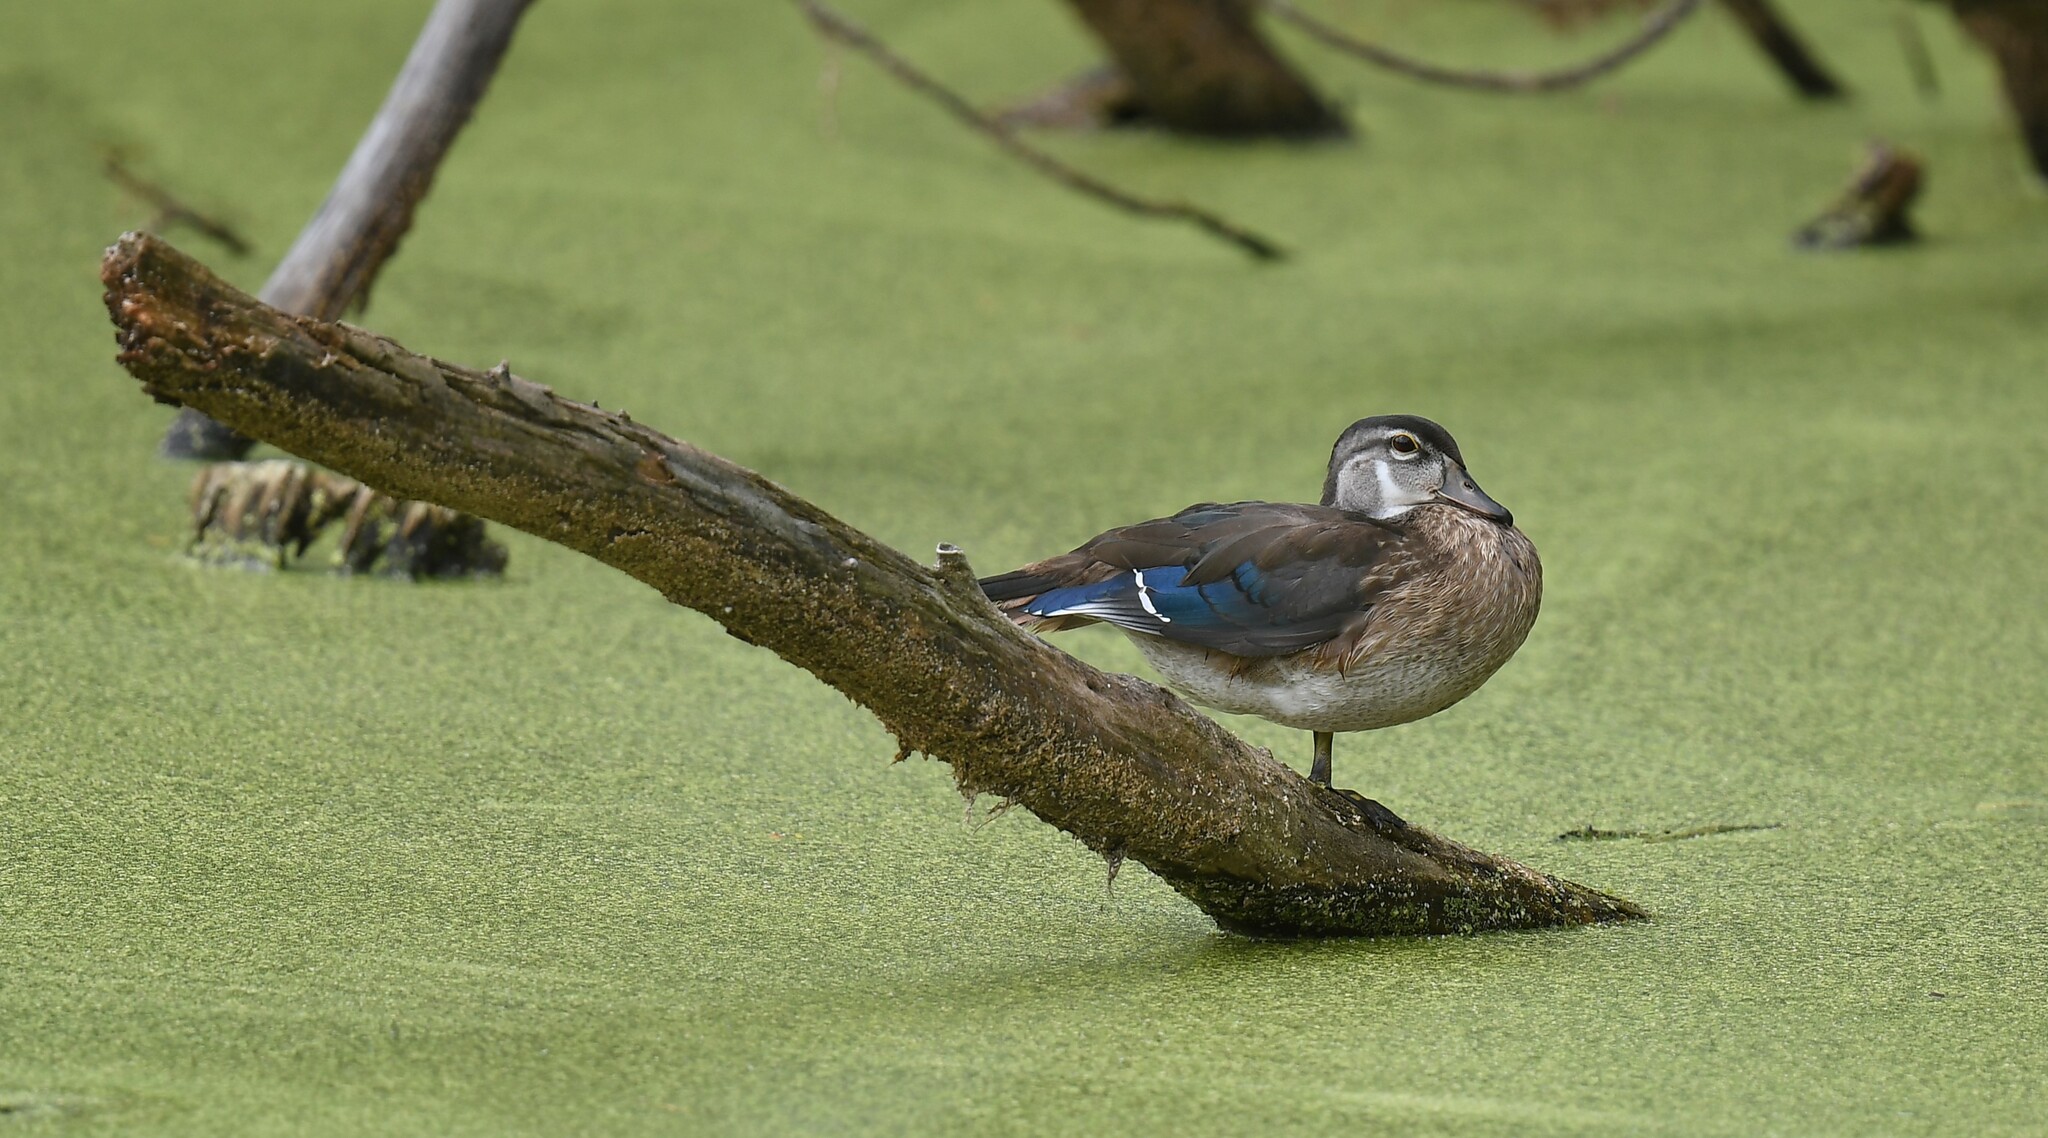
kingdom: Animalia
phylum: Chordata
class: Aves
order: Anseriformes
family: Anatidae
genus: Aix
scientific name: Aix sponsa
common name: Wood duck
